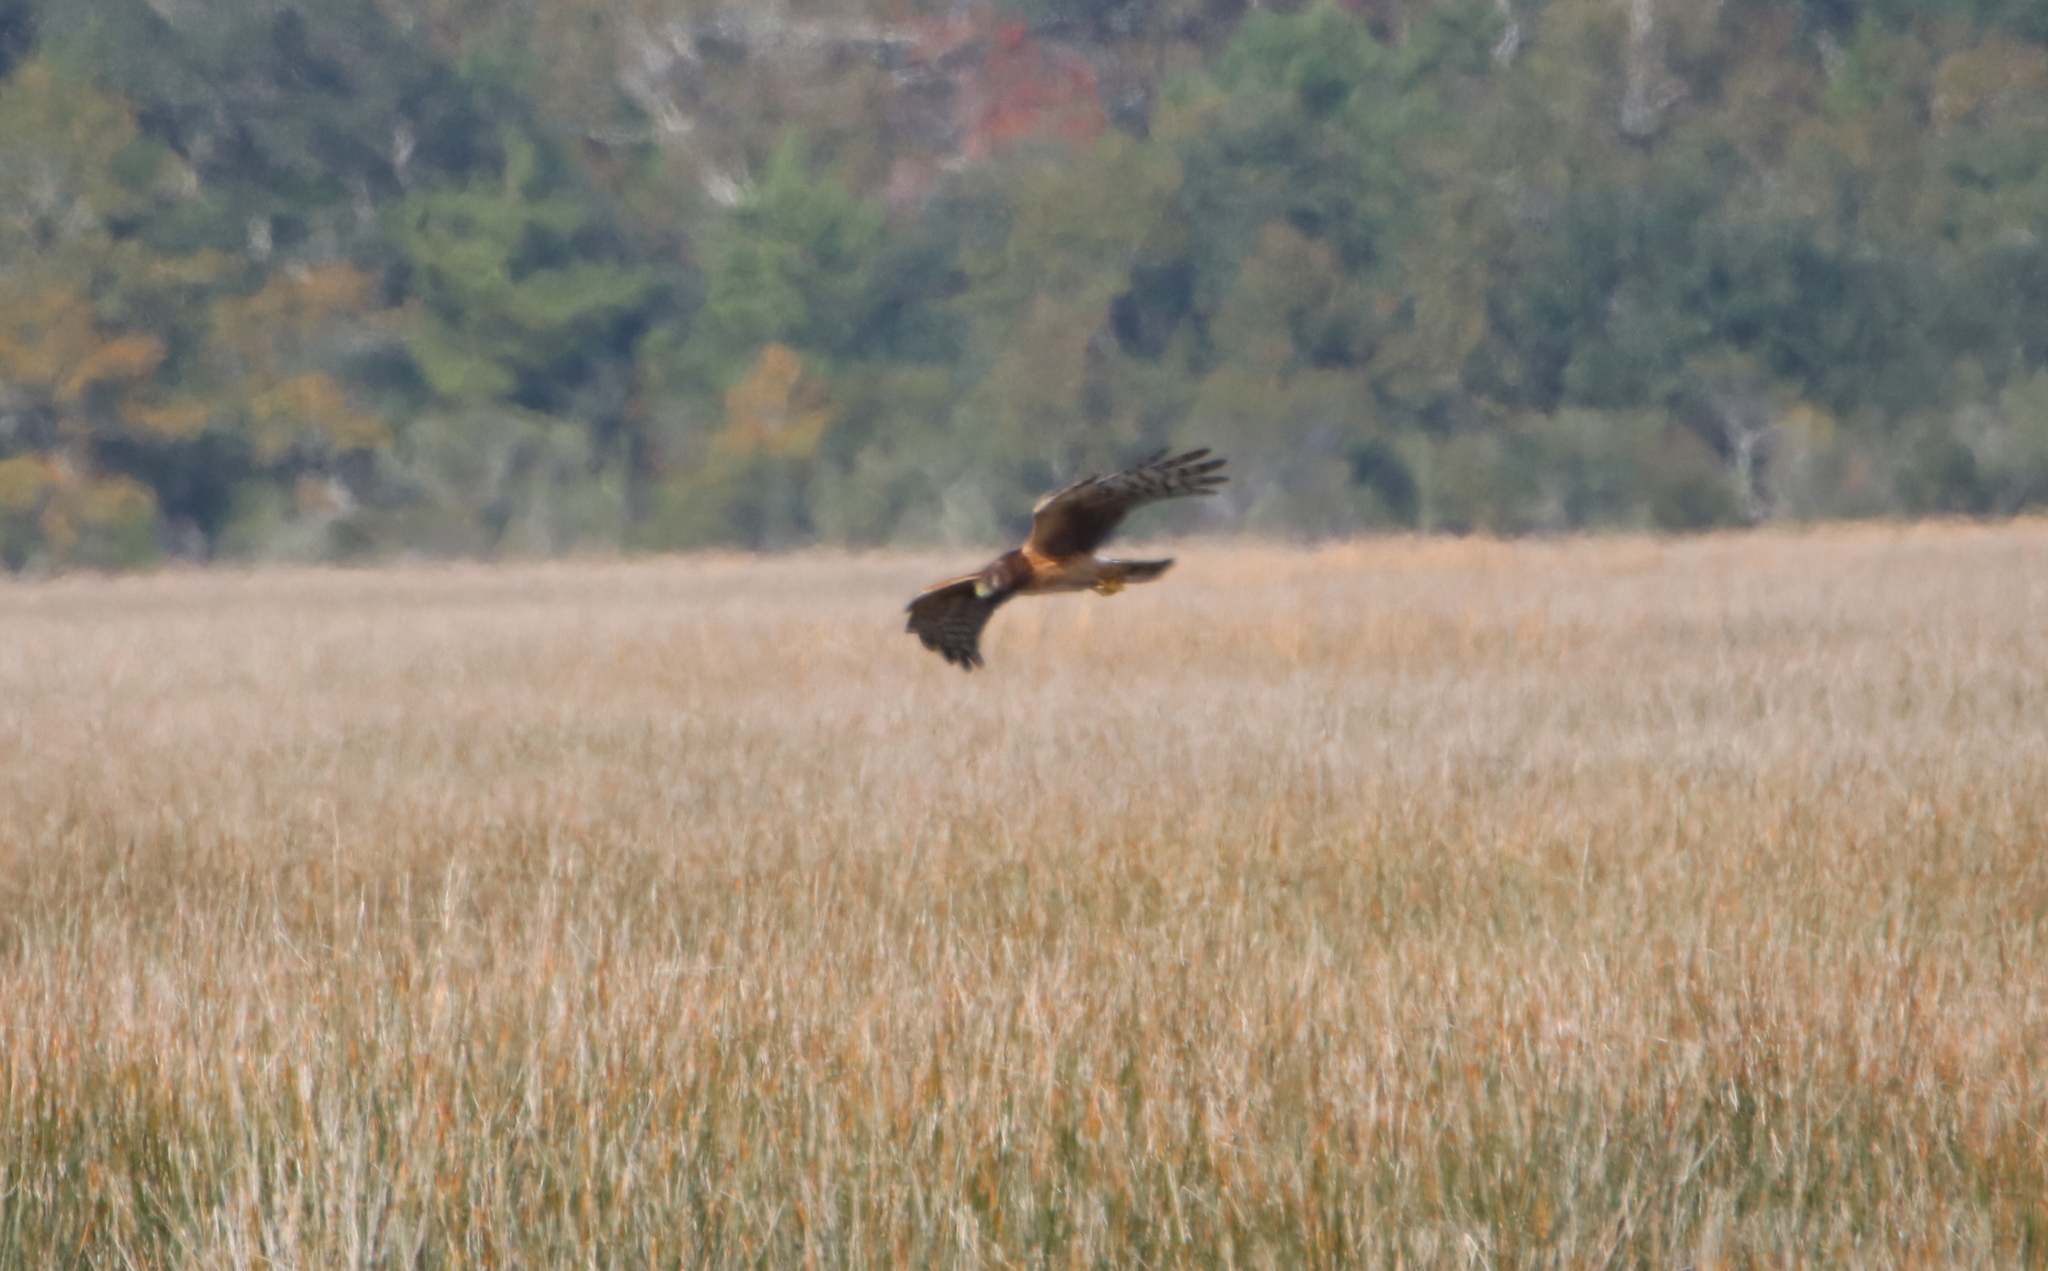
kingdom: Animalia
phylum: Chordata
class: Aves
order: Accipitriformes
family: Accipitridae
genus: Circus
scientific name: Circus cyaneus
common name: Hen harrier
